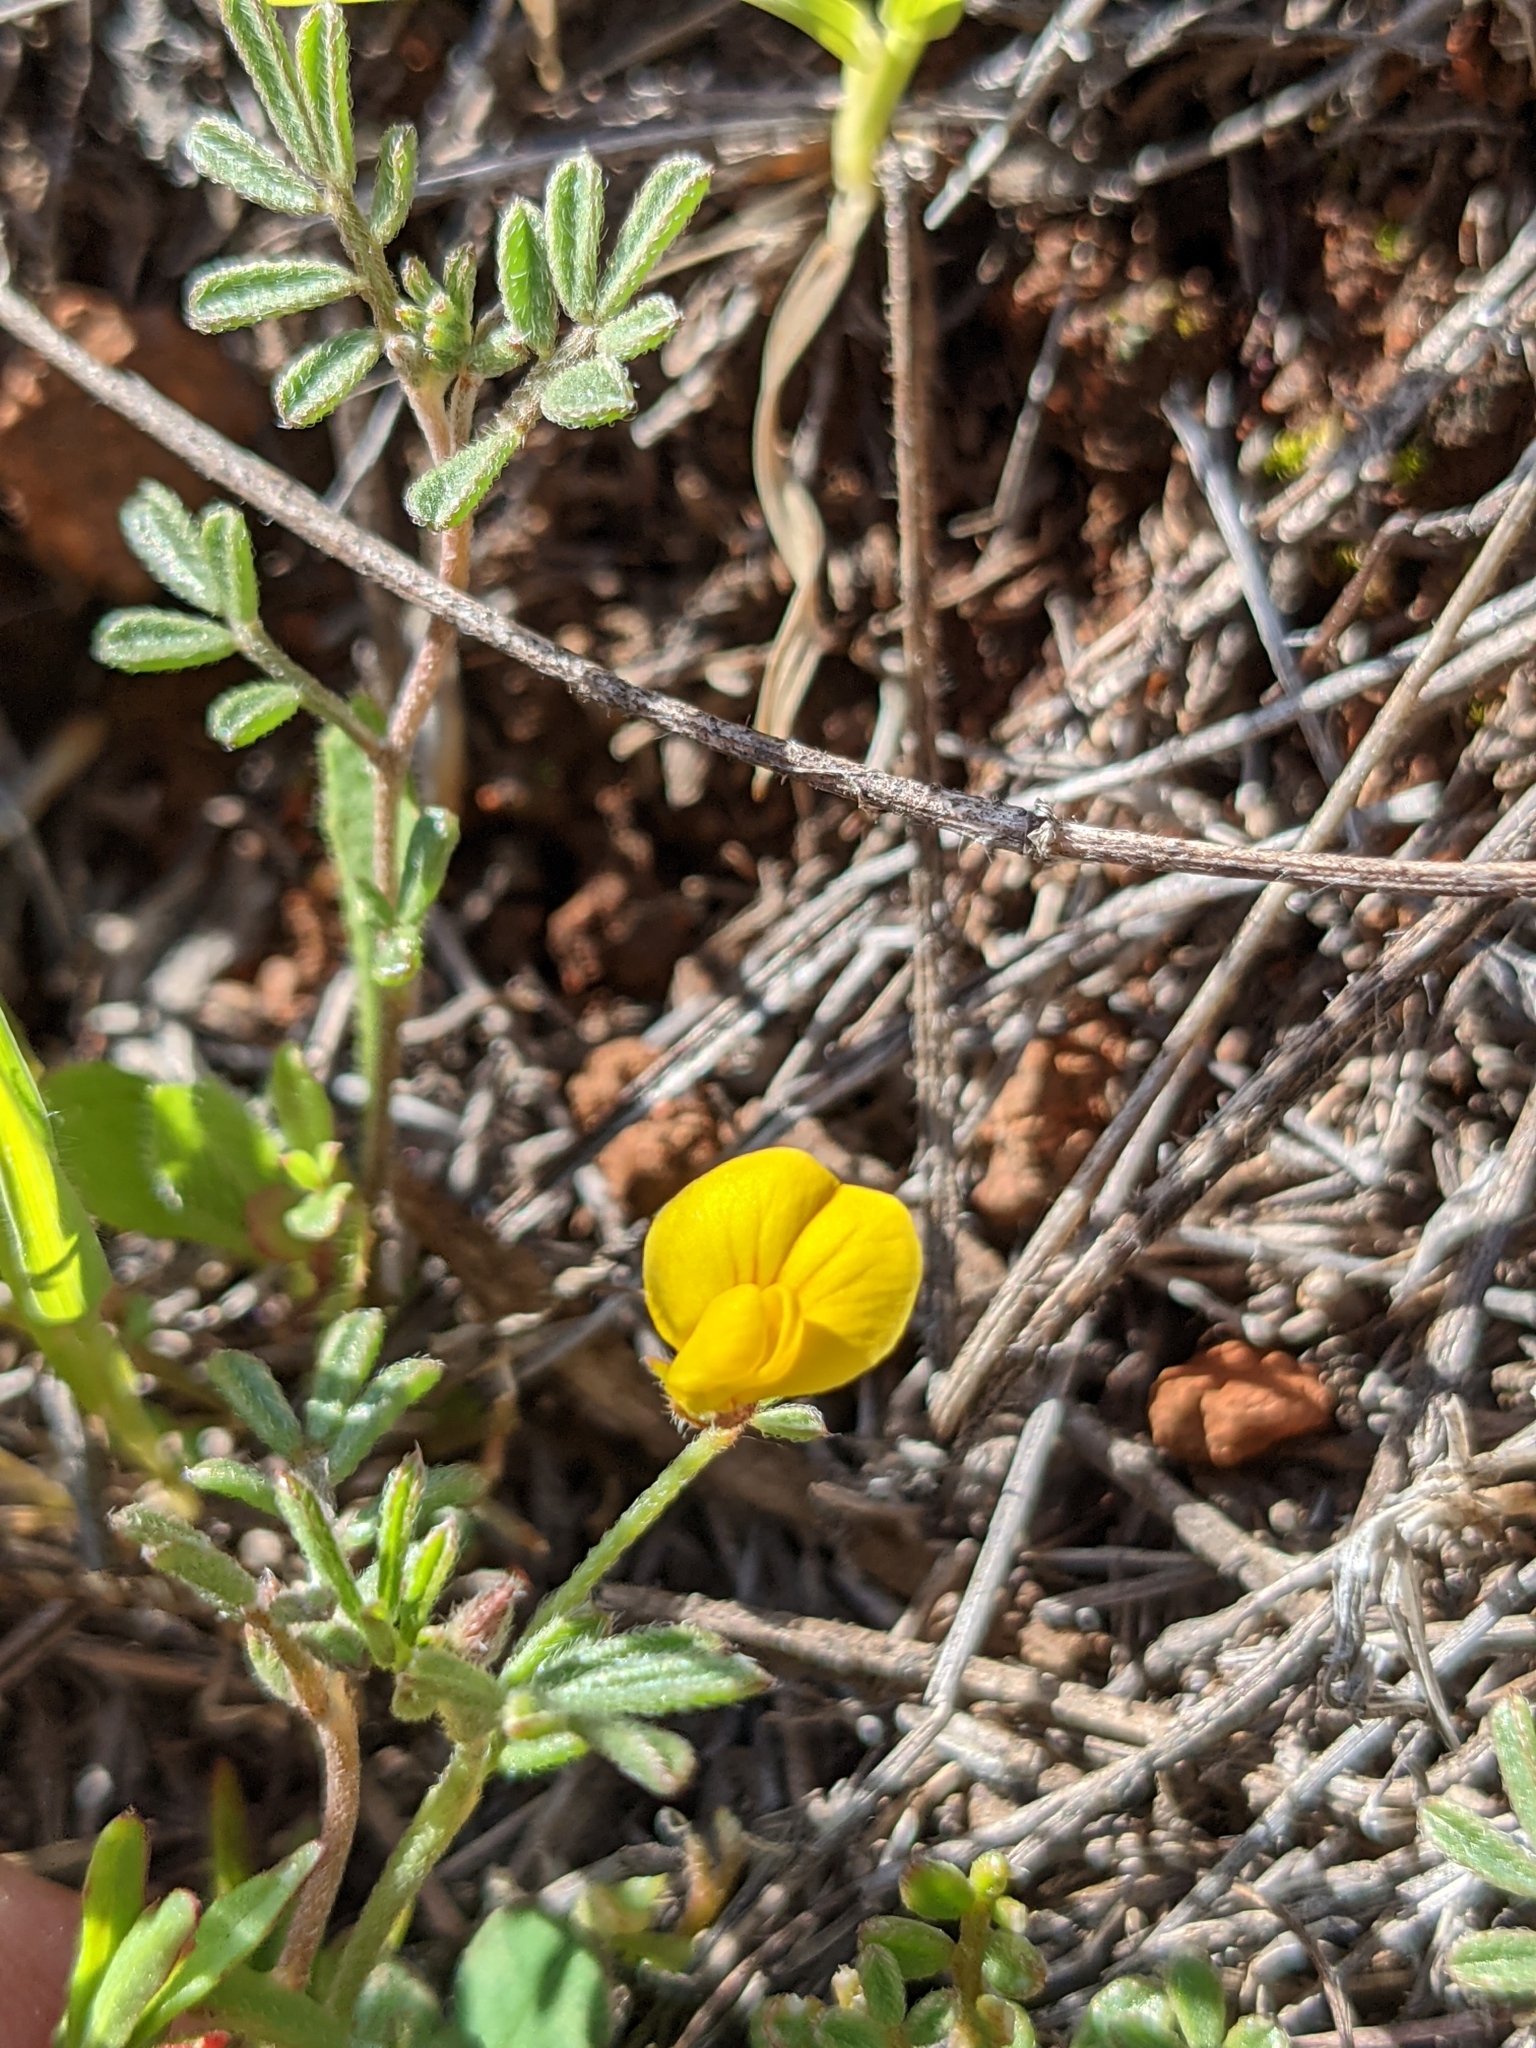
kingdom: Plantae
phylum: Tracheophyta
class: Magnoliopsida
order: Fabales
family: Fabaceae
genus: Acmispon
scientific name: Acmispon strigosus
